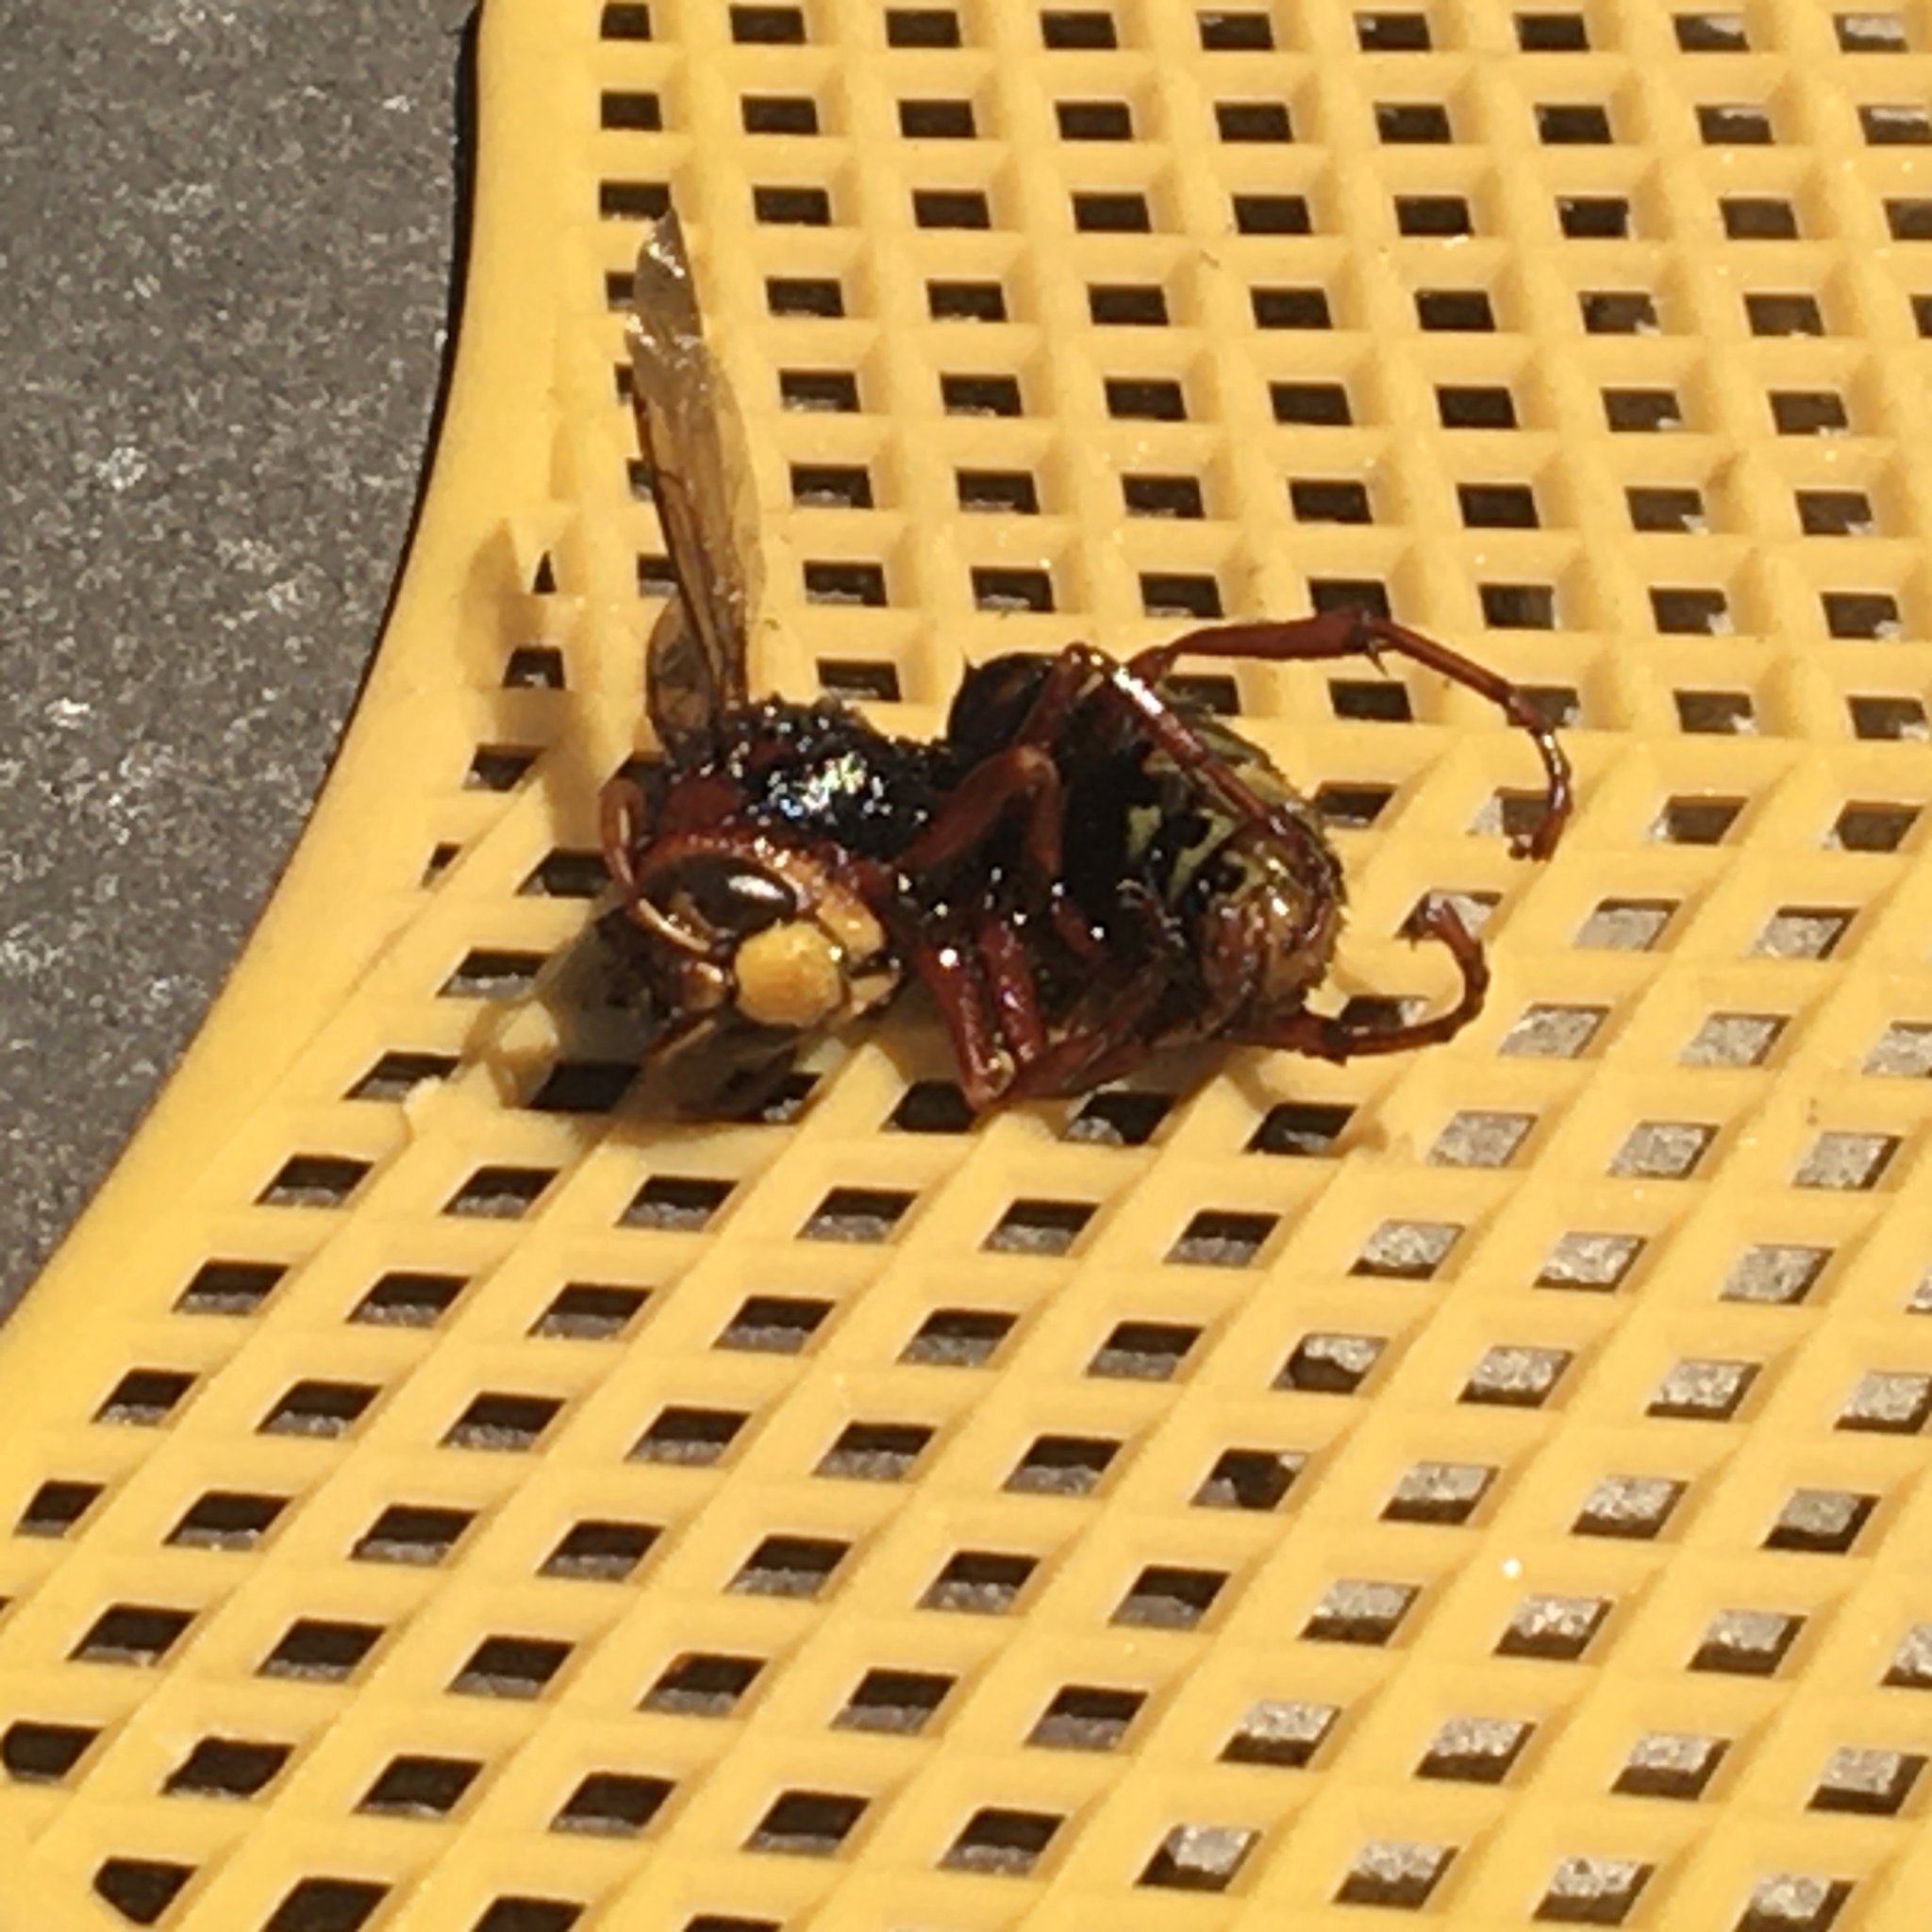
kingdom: Animalia
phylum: Arthropoda
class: Insecta
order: Hymenoptera
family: Vespidae
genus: Vespa
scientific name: Vespa crabro
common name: Hornet
